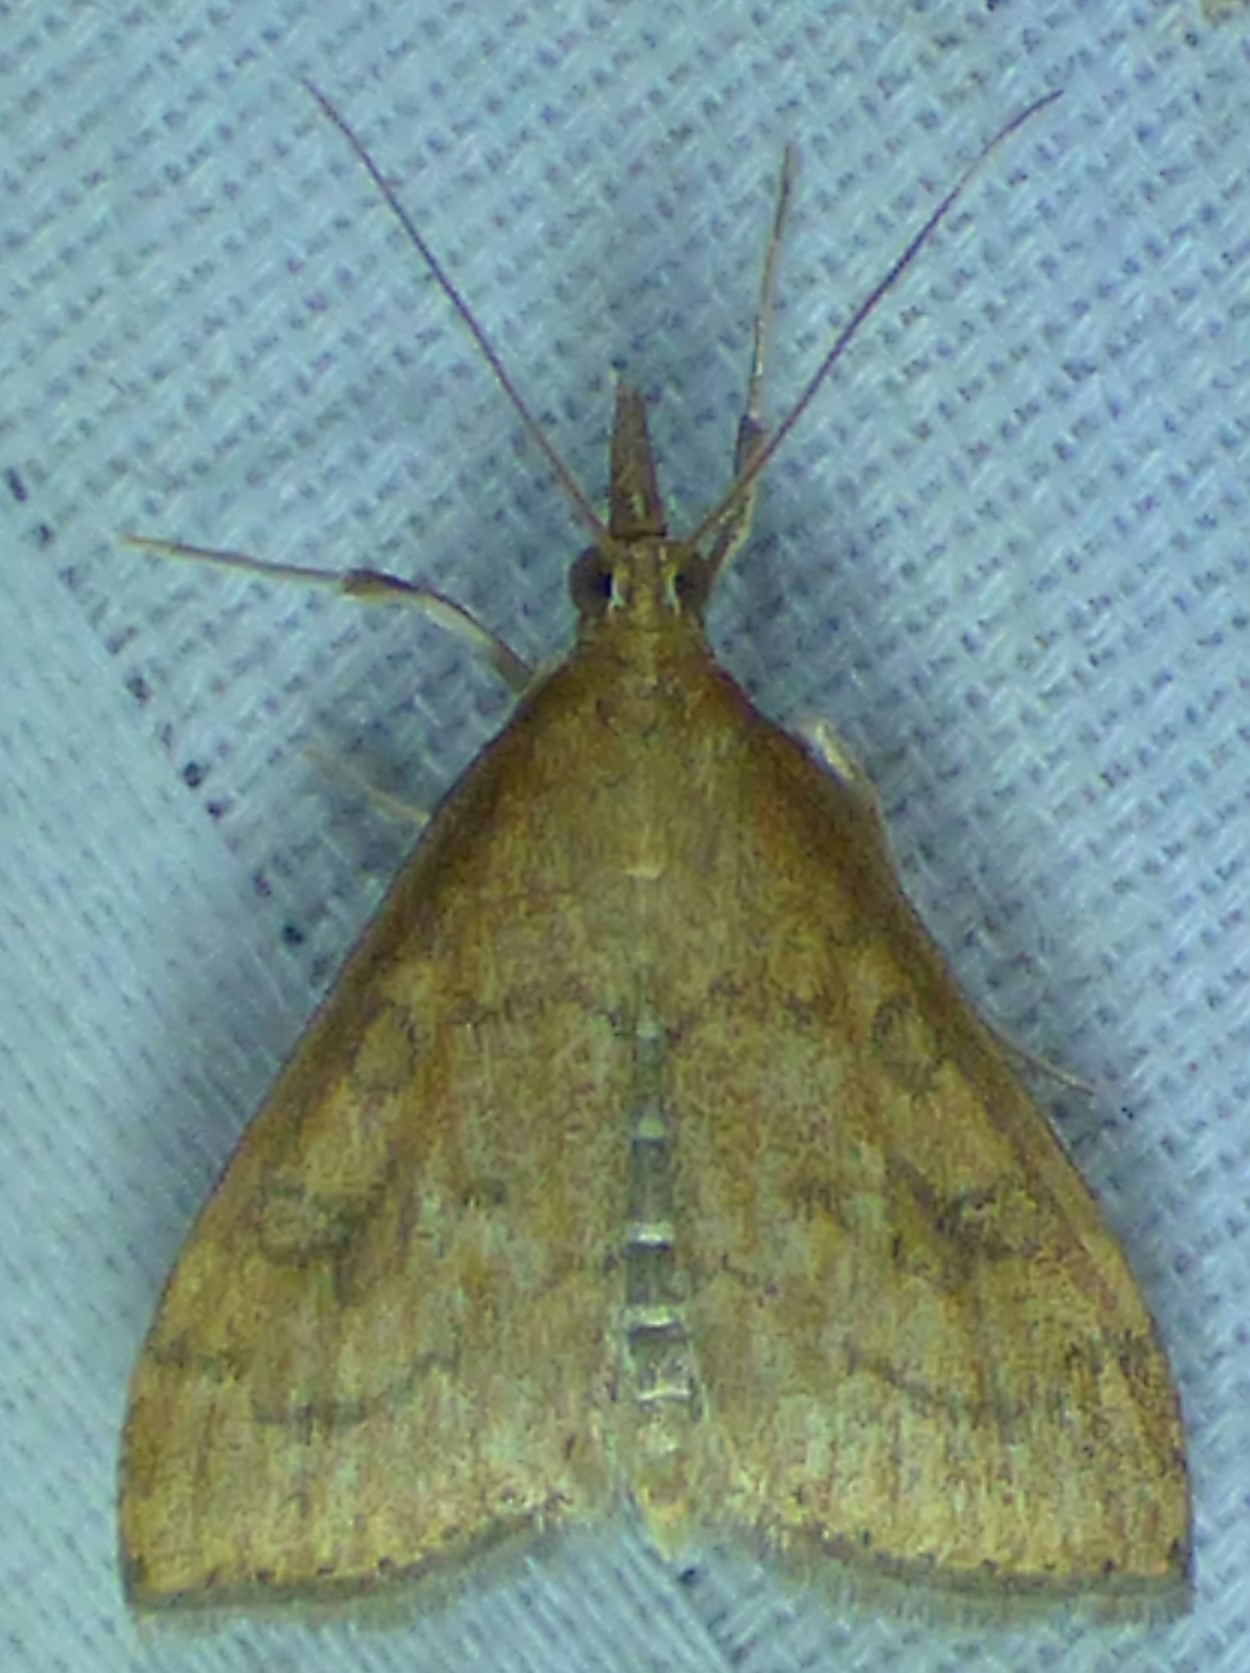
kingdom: Animalia
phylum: Arthropoda
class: Insecta
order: Lepidoptera
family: Crambidae
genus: Udea
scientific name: Udea rubigalis
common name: Celery leaftier moth
